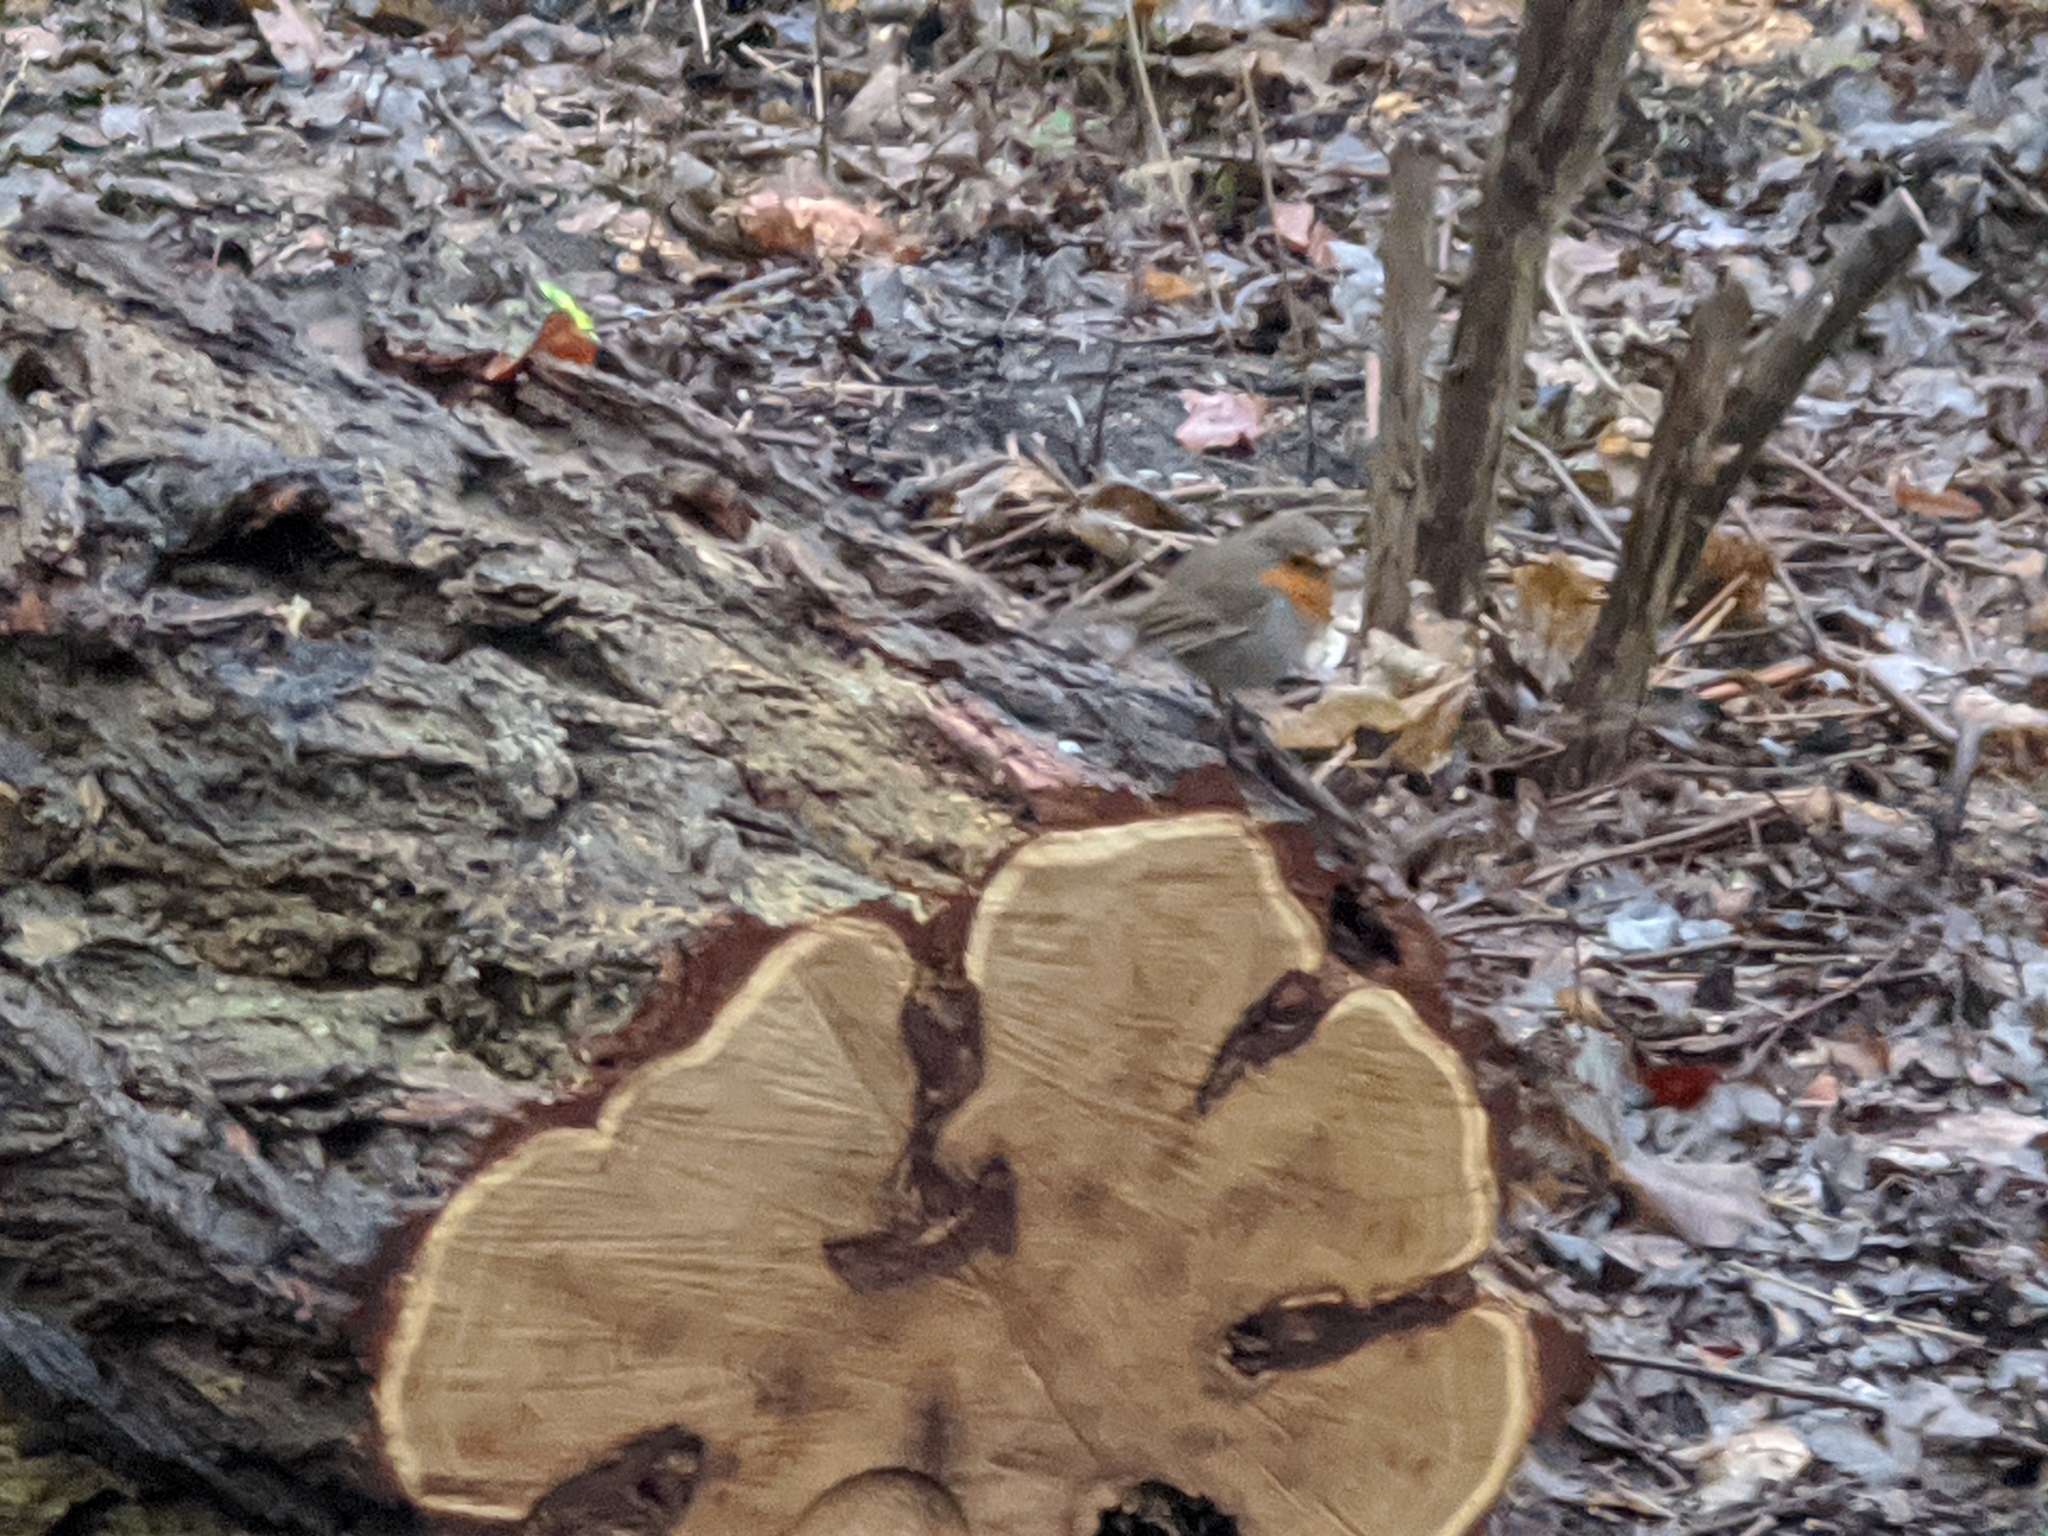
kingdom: Animalia
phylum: Chordata
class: Aves
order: Passeriformes
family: Muscicapidae
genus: Erithacus
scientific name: Erithacus rubecula
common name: European robin
